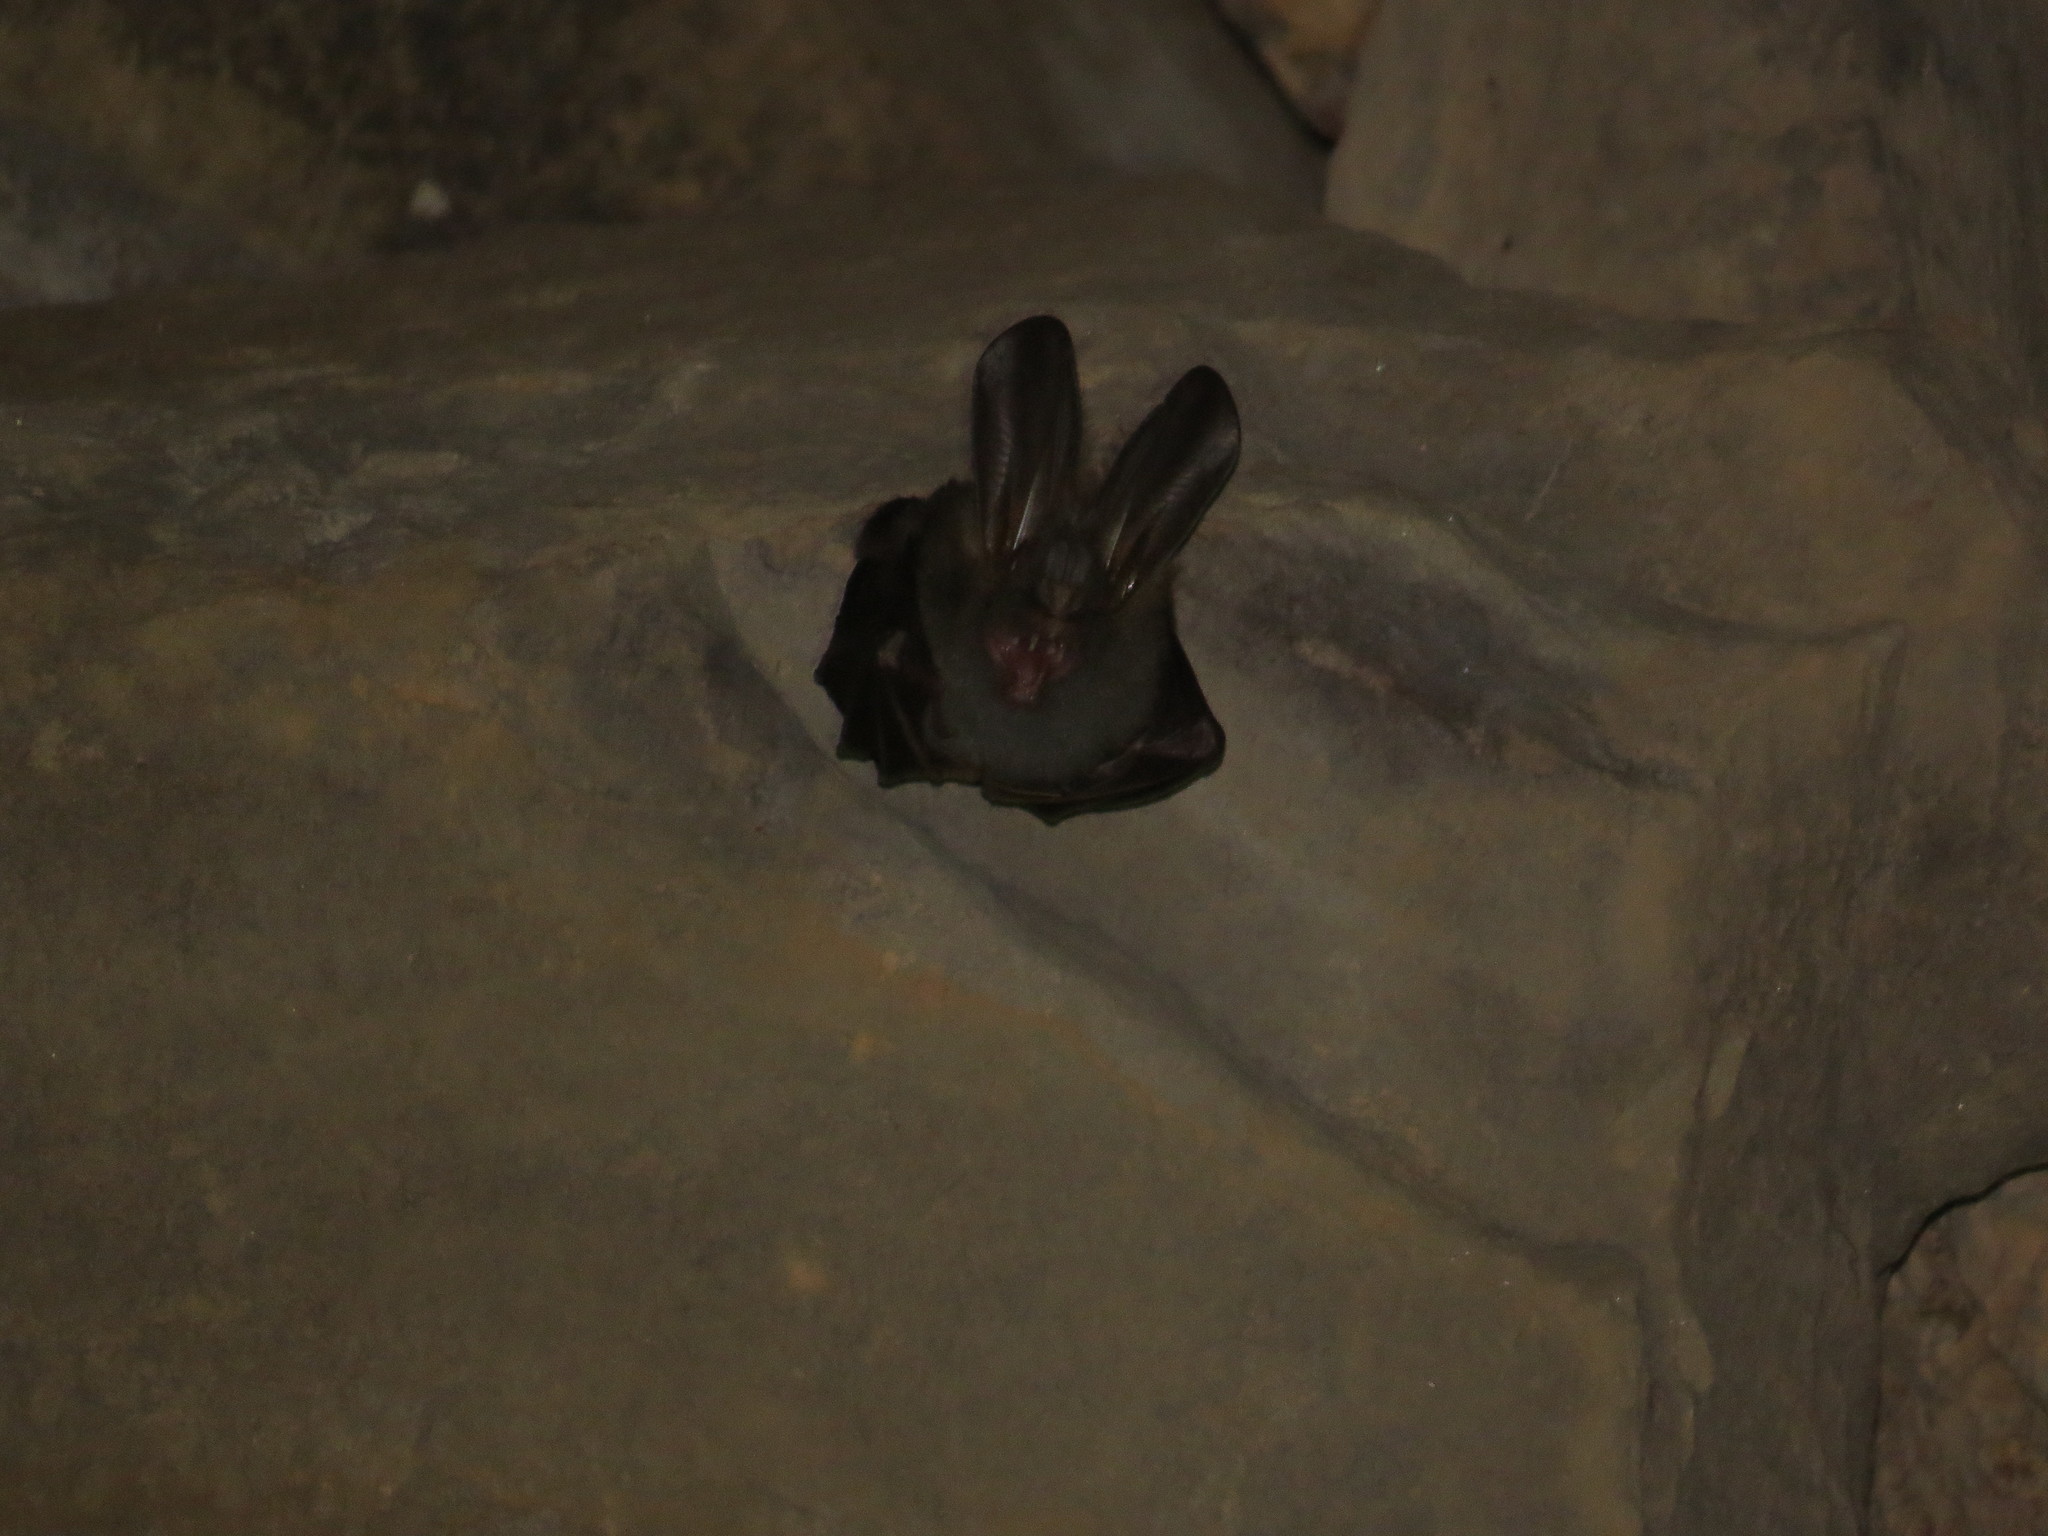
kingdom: Animalia
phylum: Chordata
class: Mammalia
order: Chiroptera
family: Megadermatidae
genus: Megaderma
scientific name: Megaderma spasma
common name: Lesser false vampire bat
